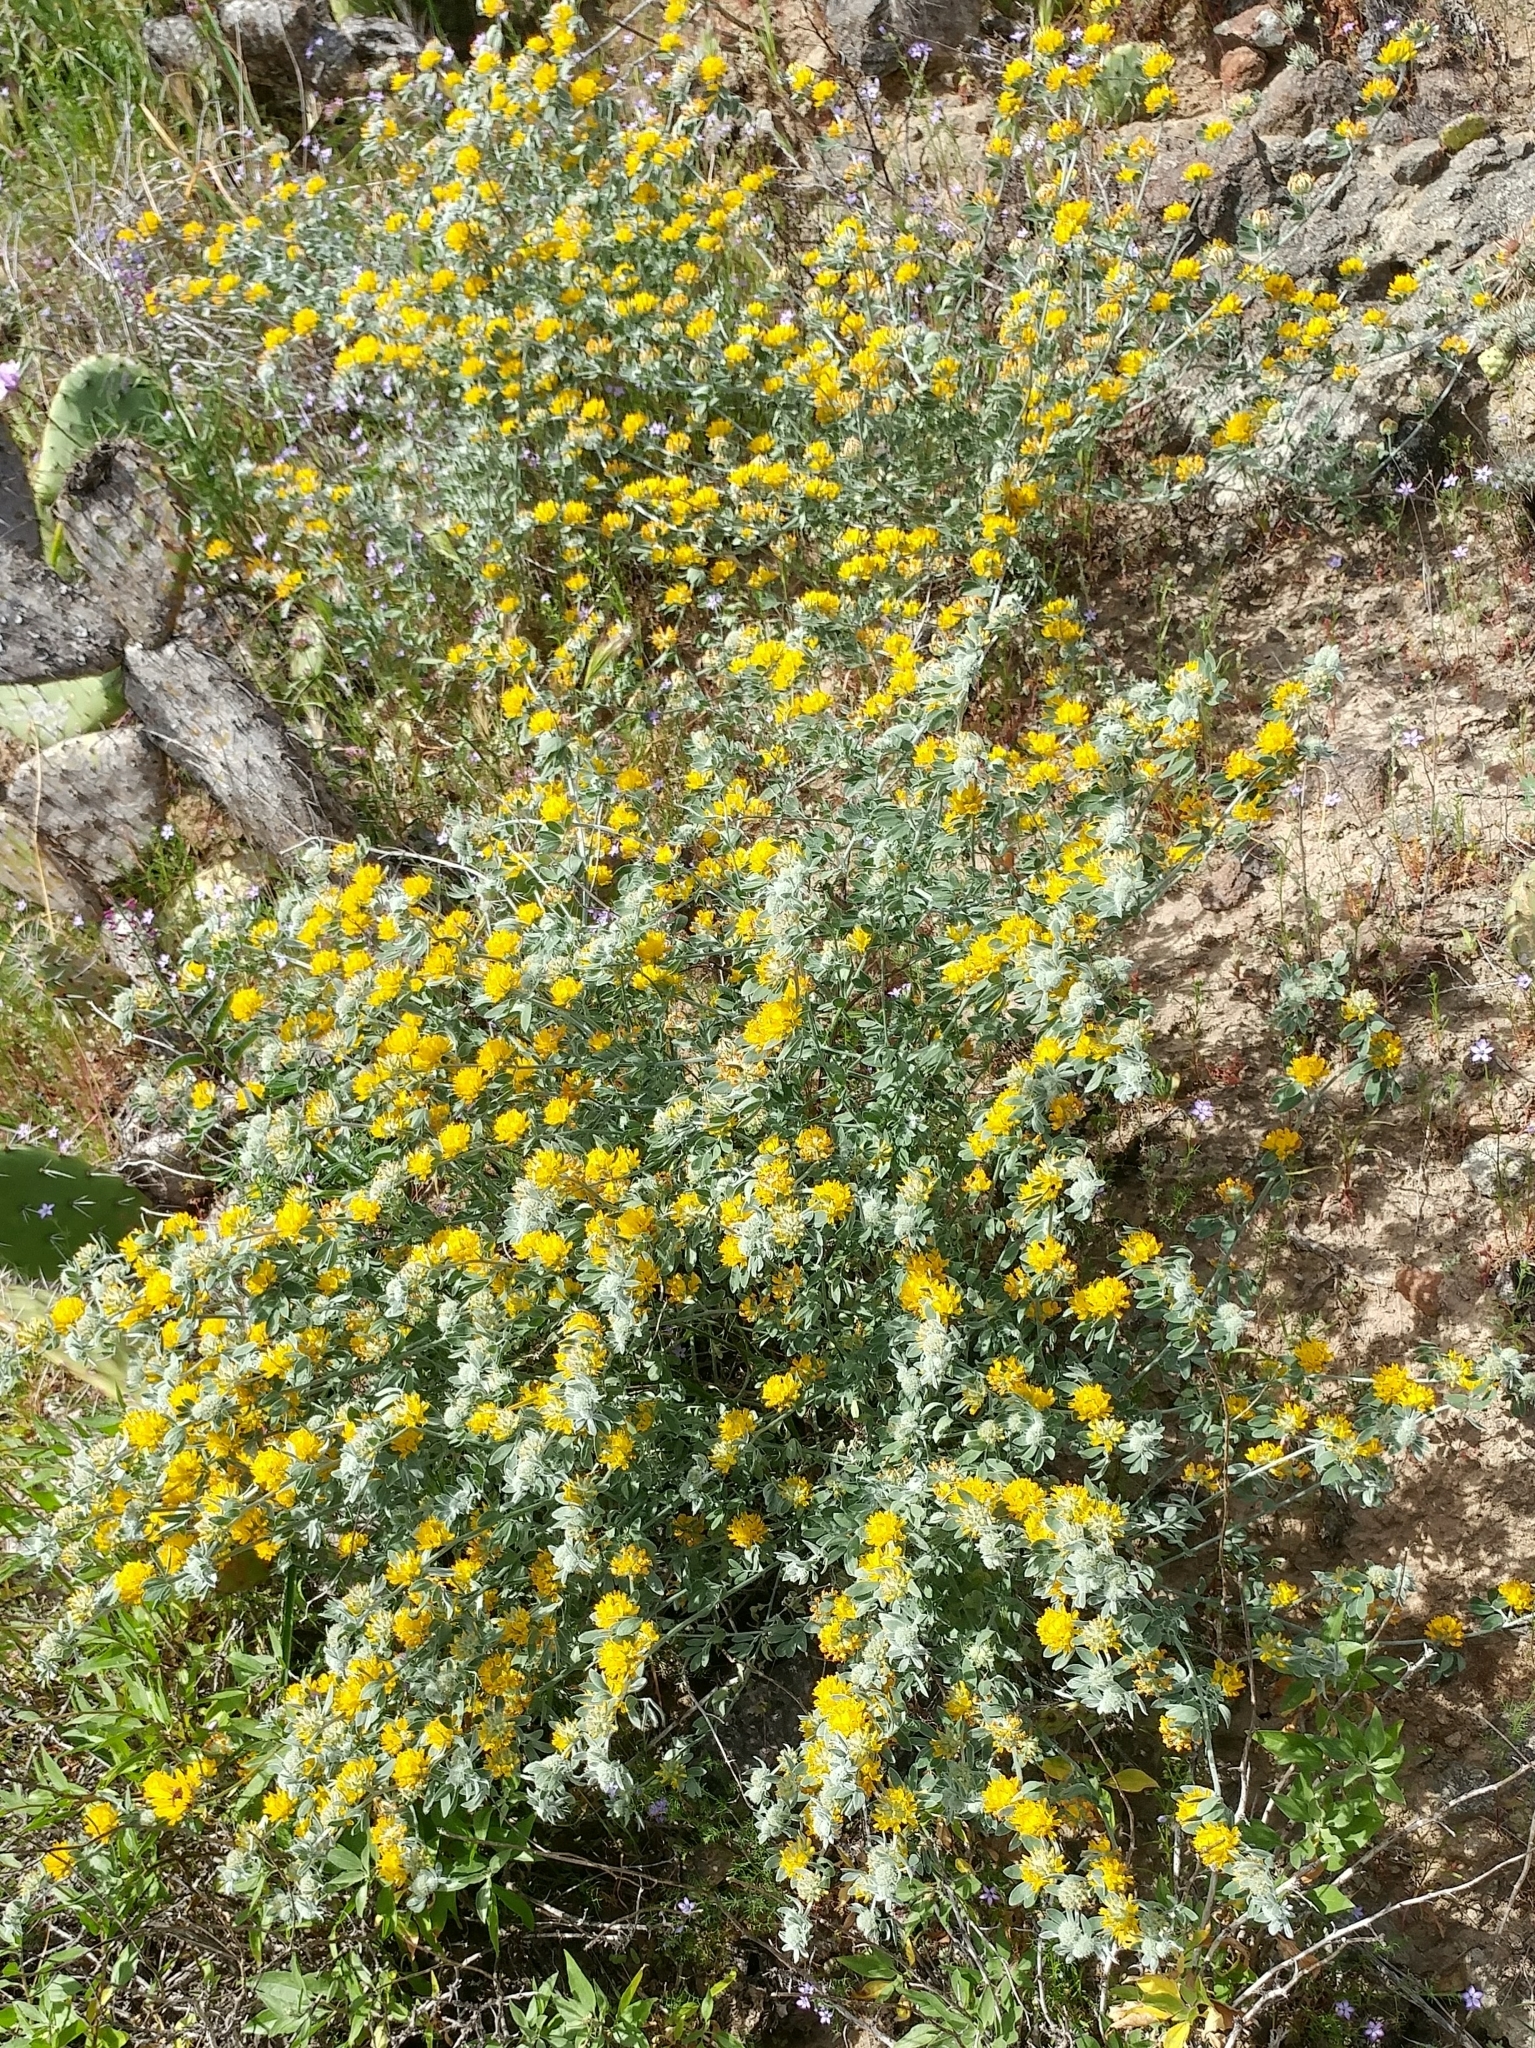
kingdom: Plantae
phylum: Tracheophyta
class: Magnoliopsida
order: Fabales
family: Fabaceae
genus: Acmispon
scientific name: Acmispon argophyllus
